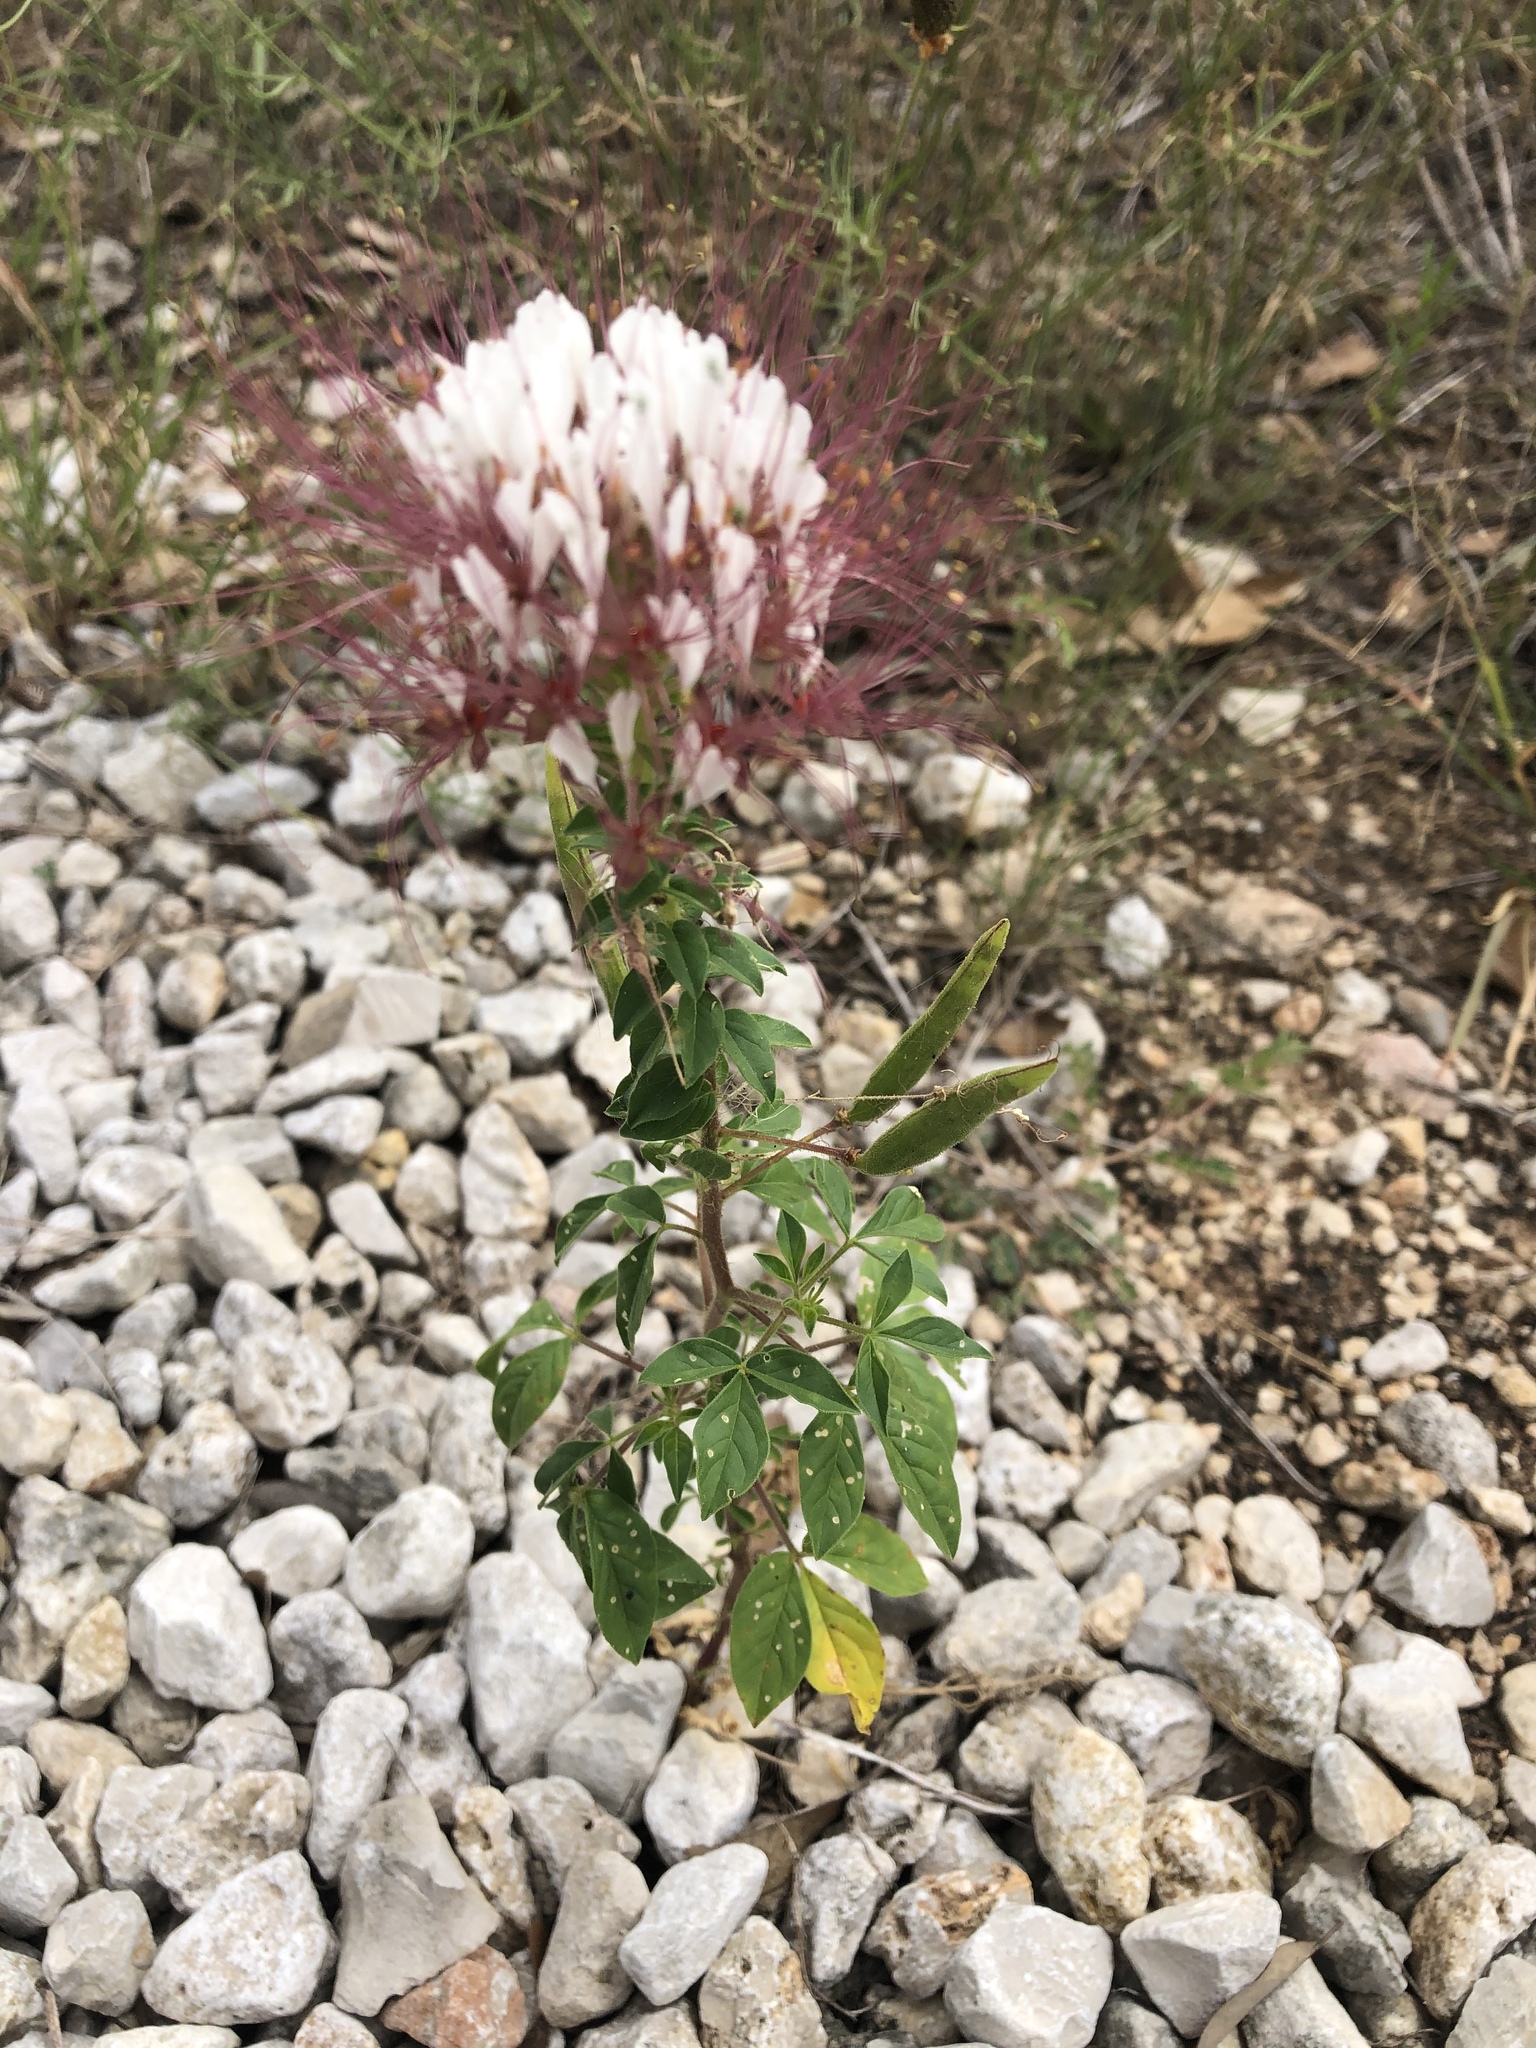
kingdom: Plantae
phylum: Tracheophyta
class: Magnoliopsida
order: Brassicales
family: Cleomaceae
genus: Polanisia
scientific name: Polanisia dodecandra
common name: Clammyweed
